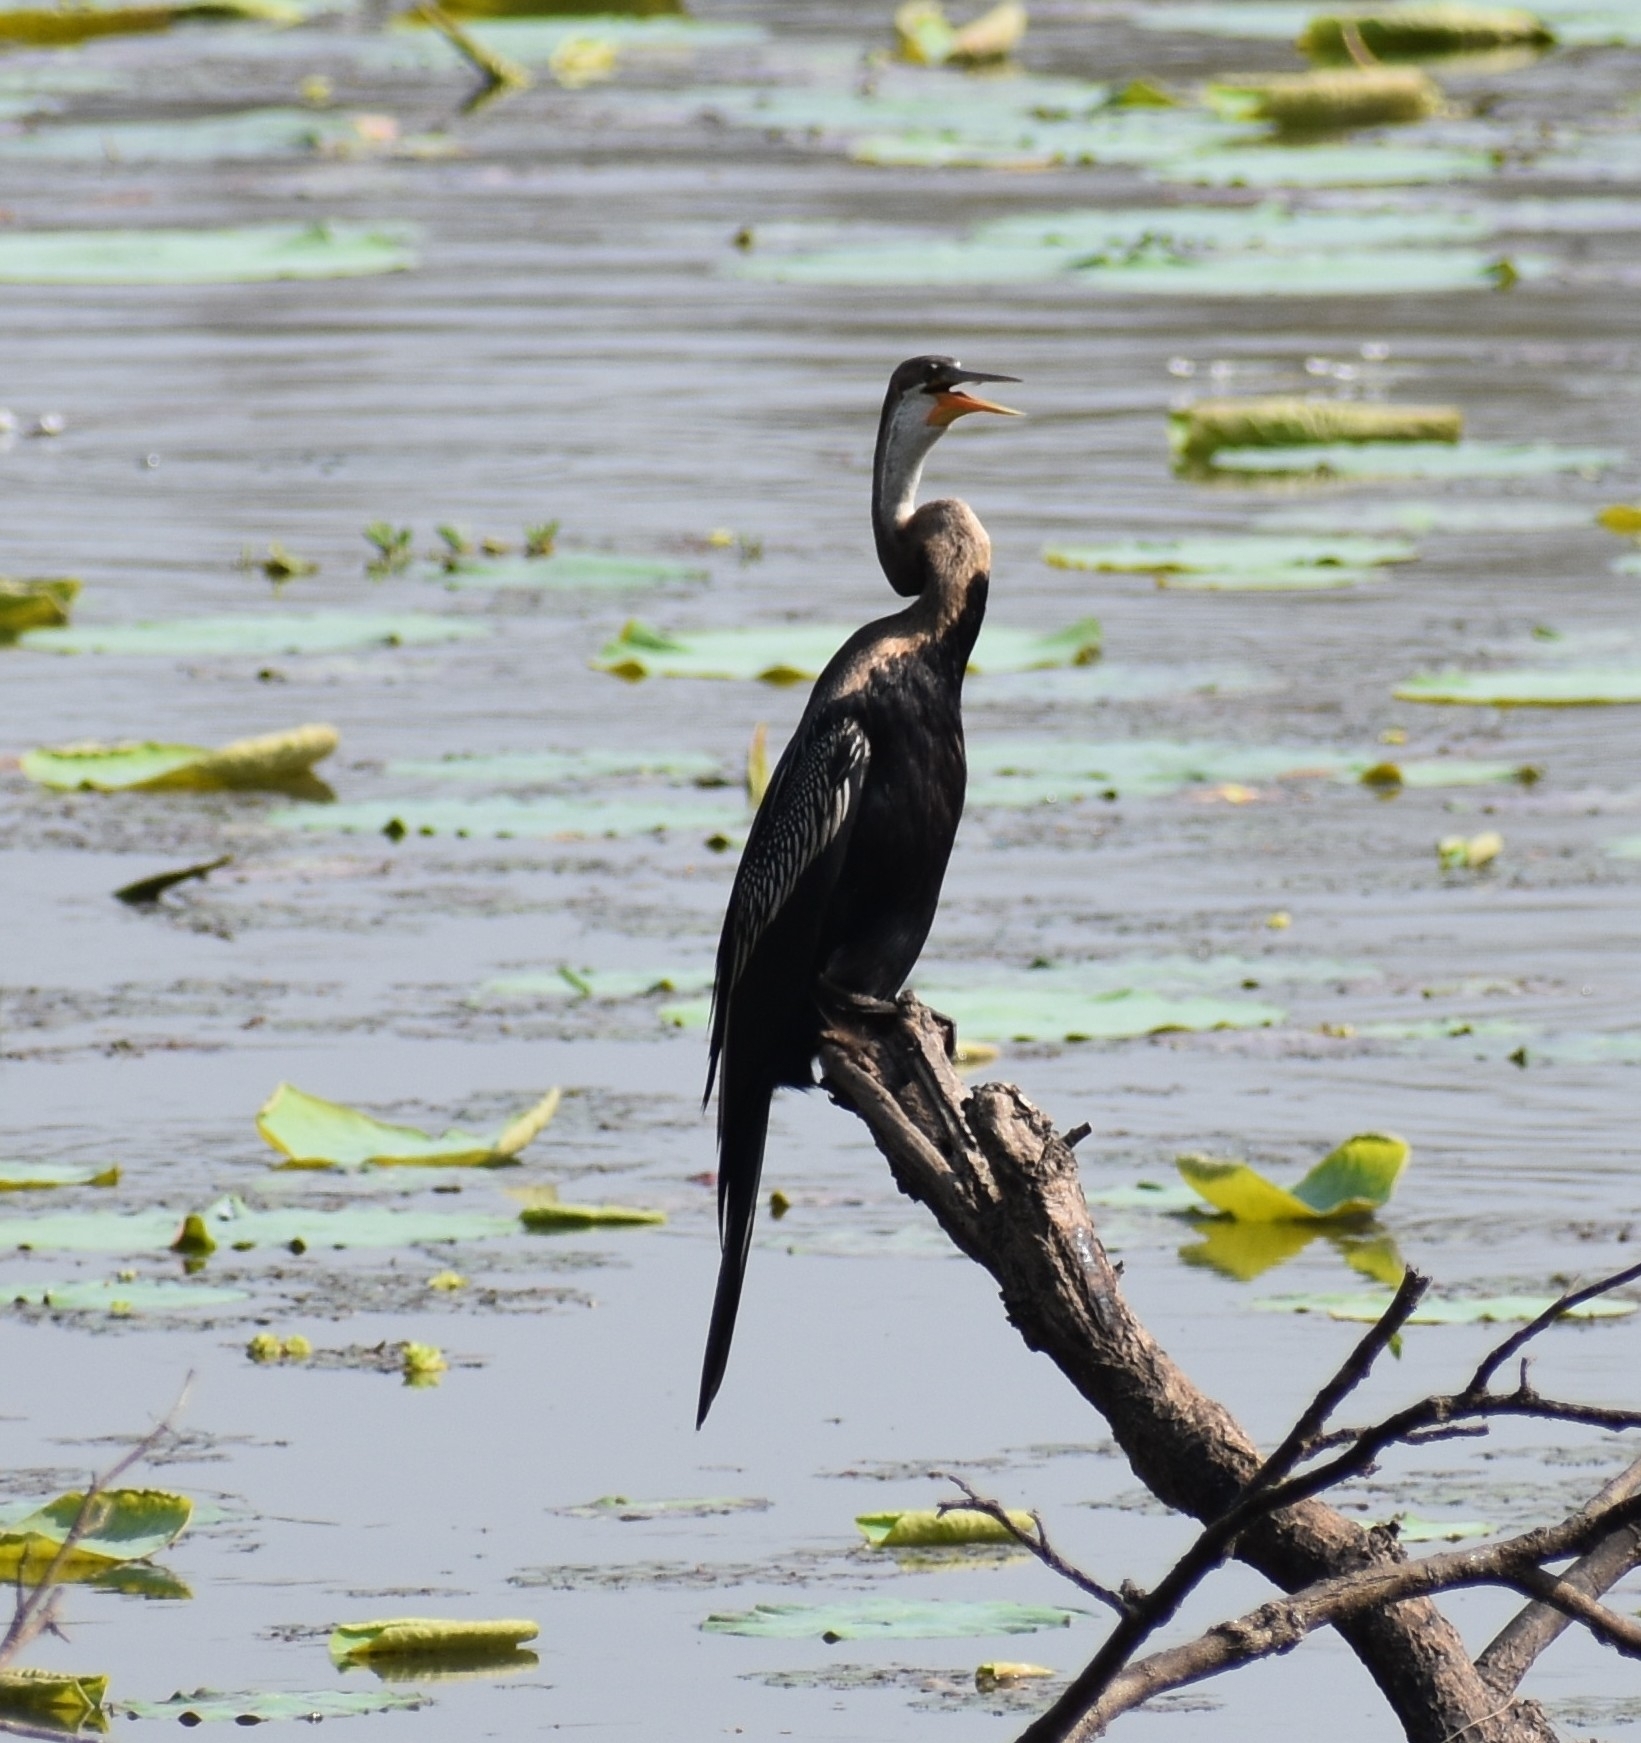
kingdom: Animalia
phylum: Chordata
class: Aves
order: Suliformes
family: Anhingidae
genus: Anhinga
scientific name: Anhinga melanogaster
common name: Oriental darter
